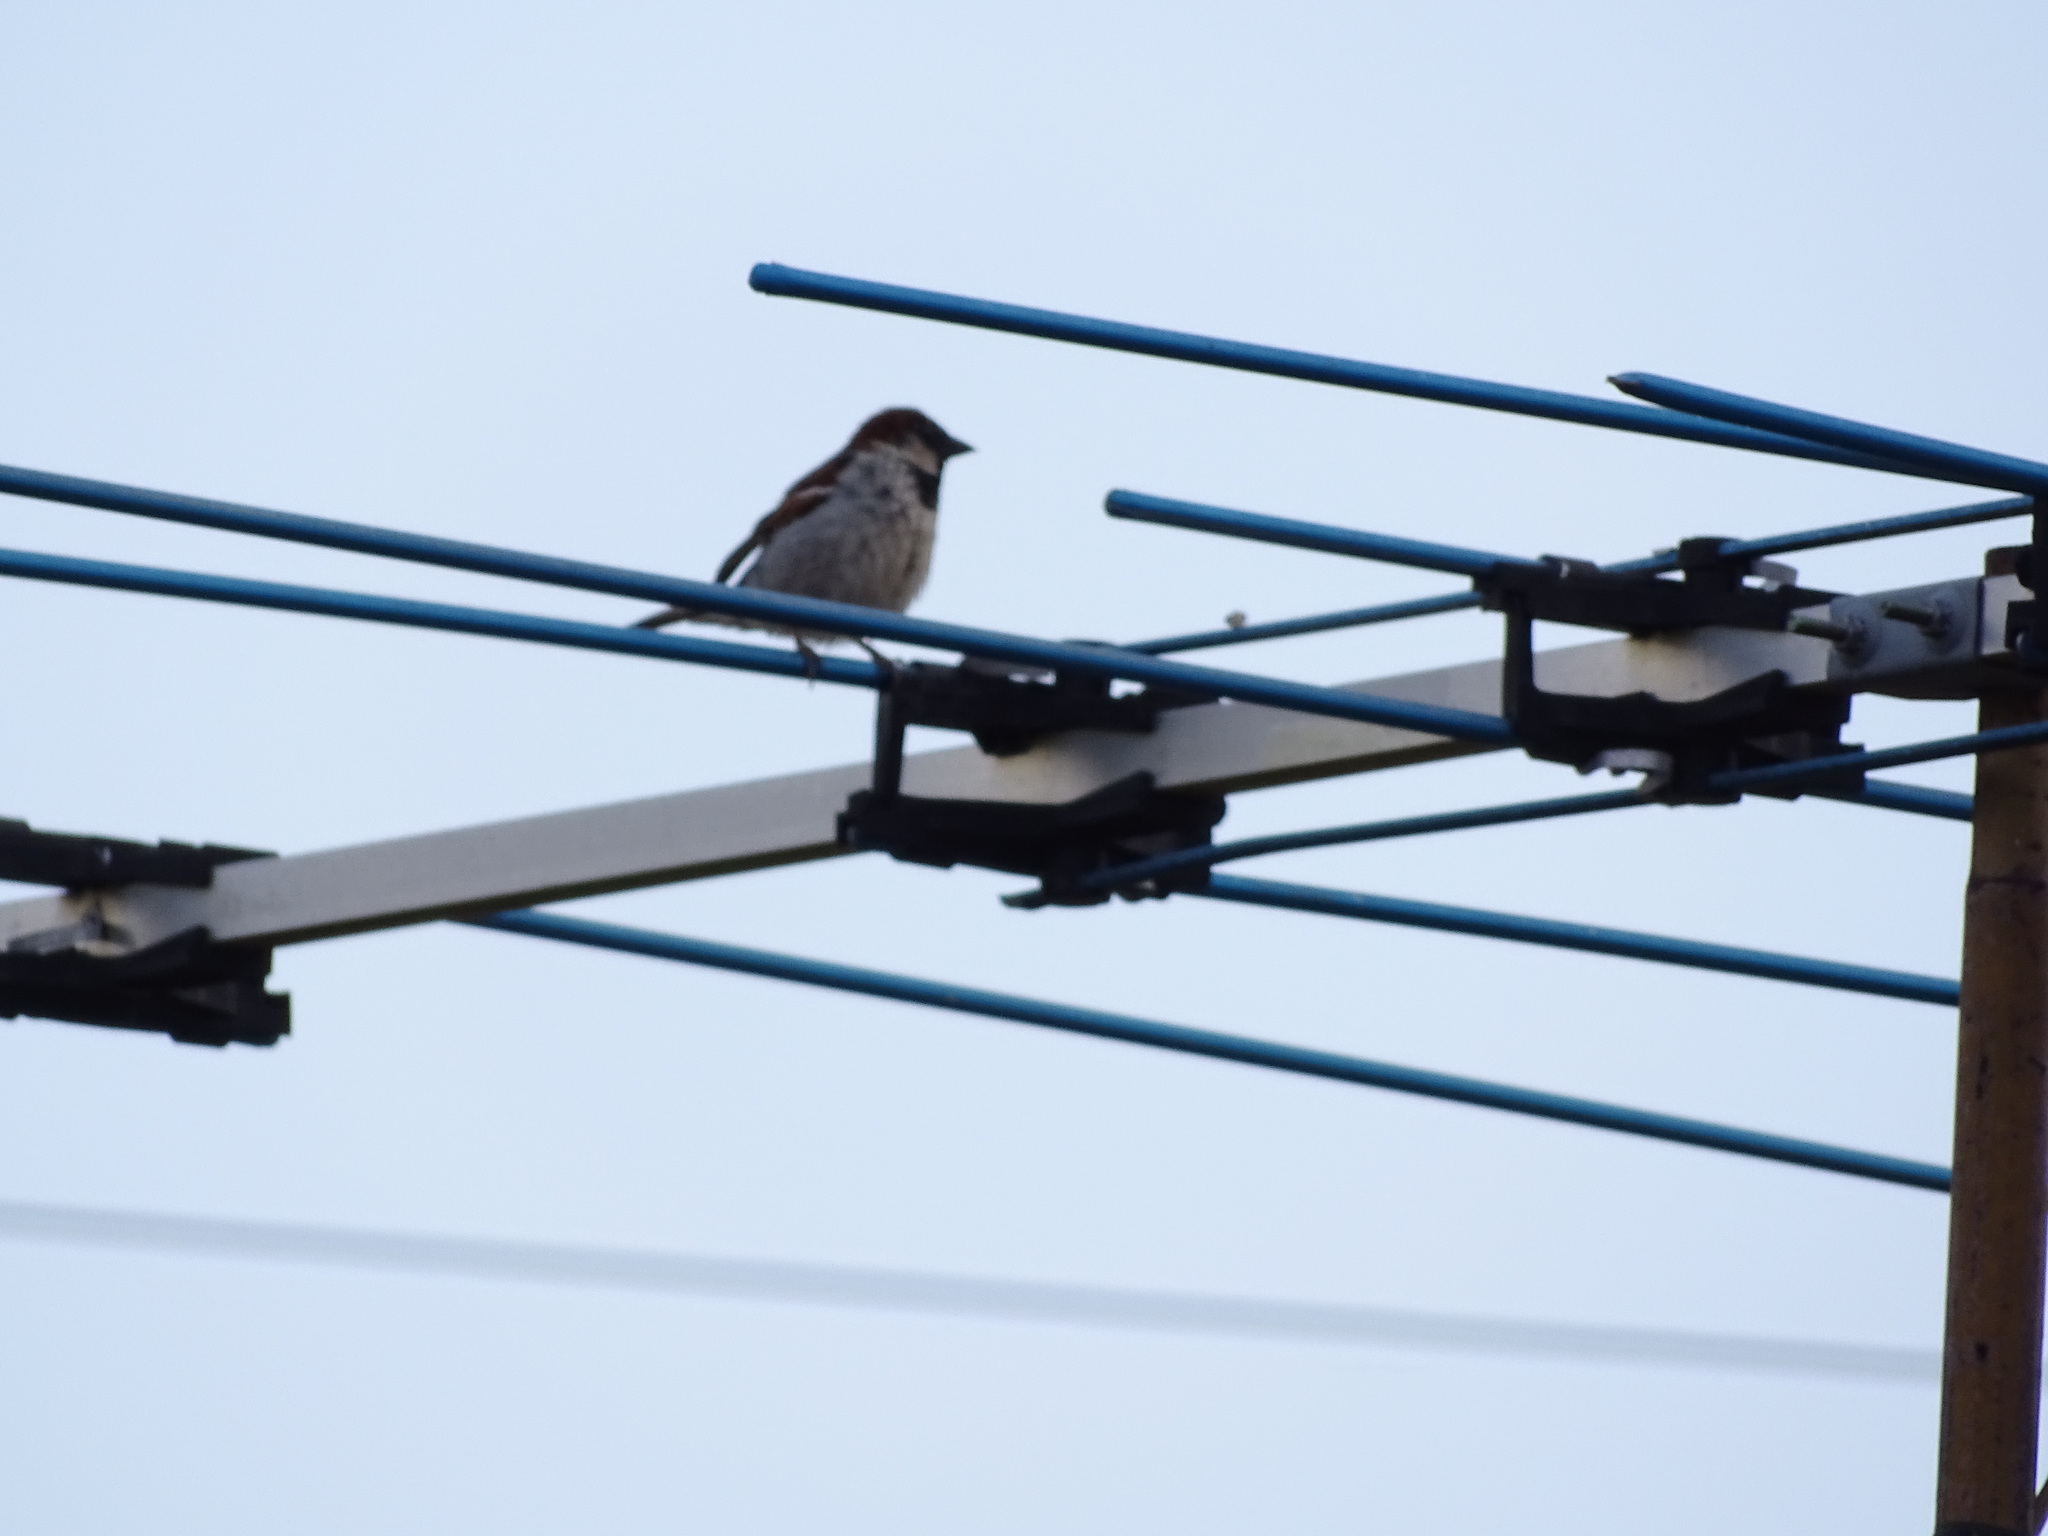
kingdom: Animalia
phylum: Chordata
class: Aves
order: Passeriformes
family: Passeridae
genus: Passer
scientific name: Passer domesticus
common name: House sparrow
